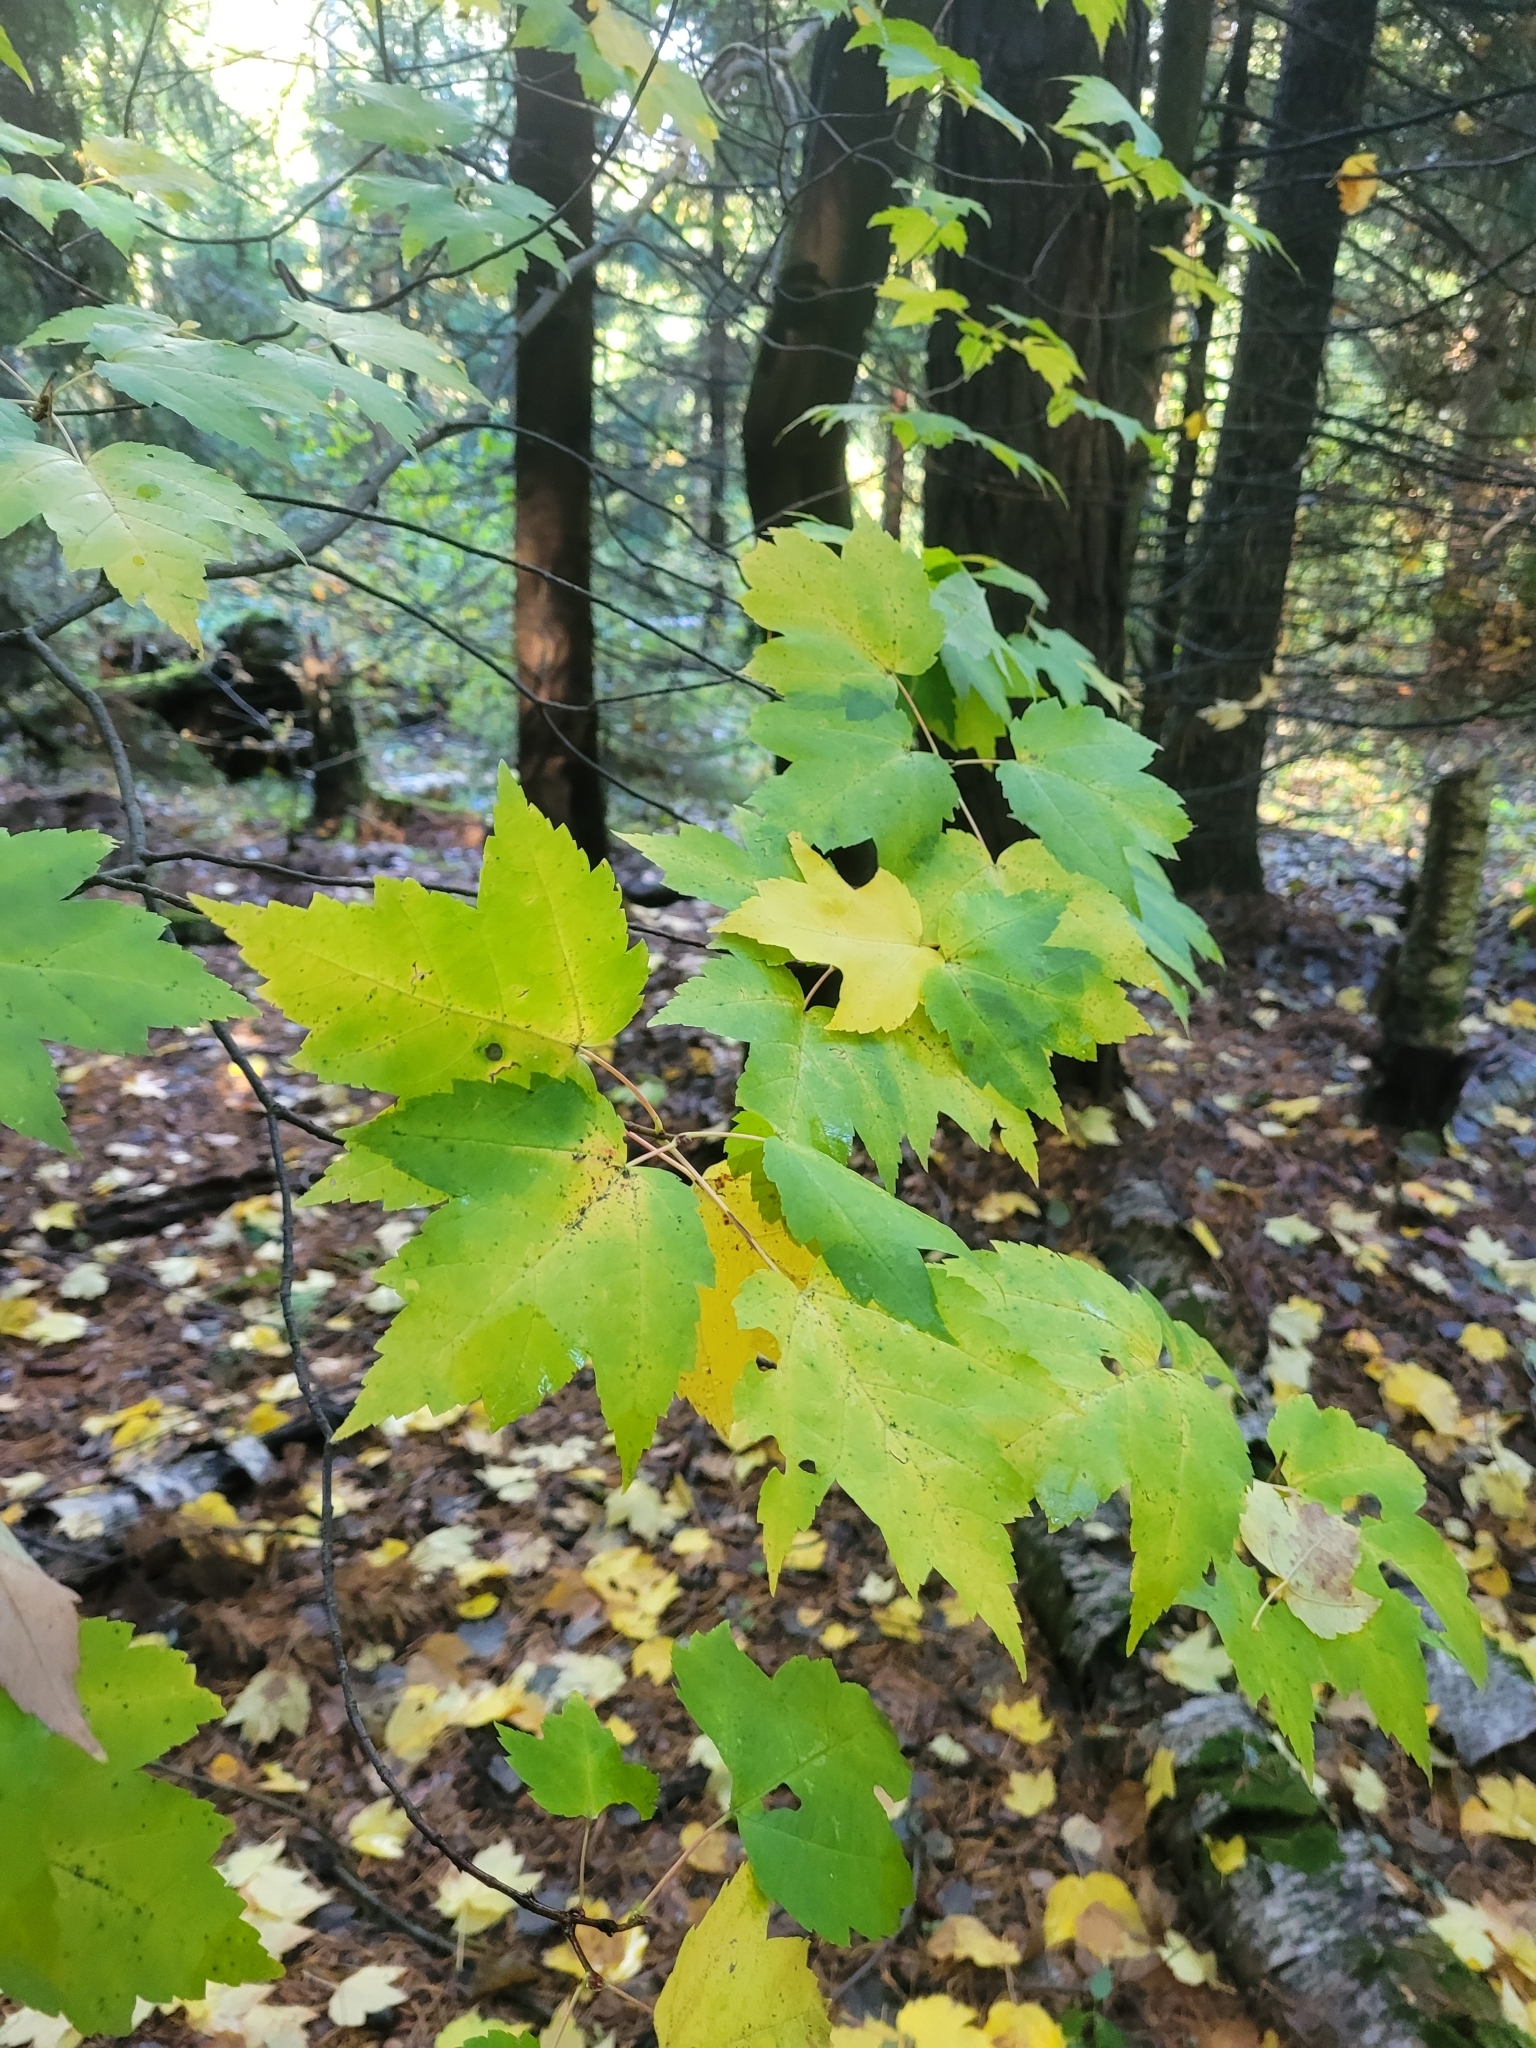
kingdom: Plantae
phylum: Tracheophyta
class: Magnoliopsida
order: Sapindales
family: Sapindaceae
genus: Acer
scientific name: Acer rubrum
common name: Red maple
